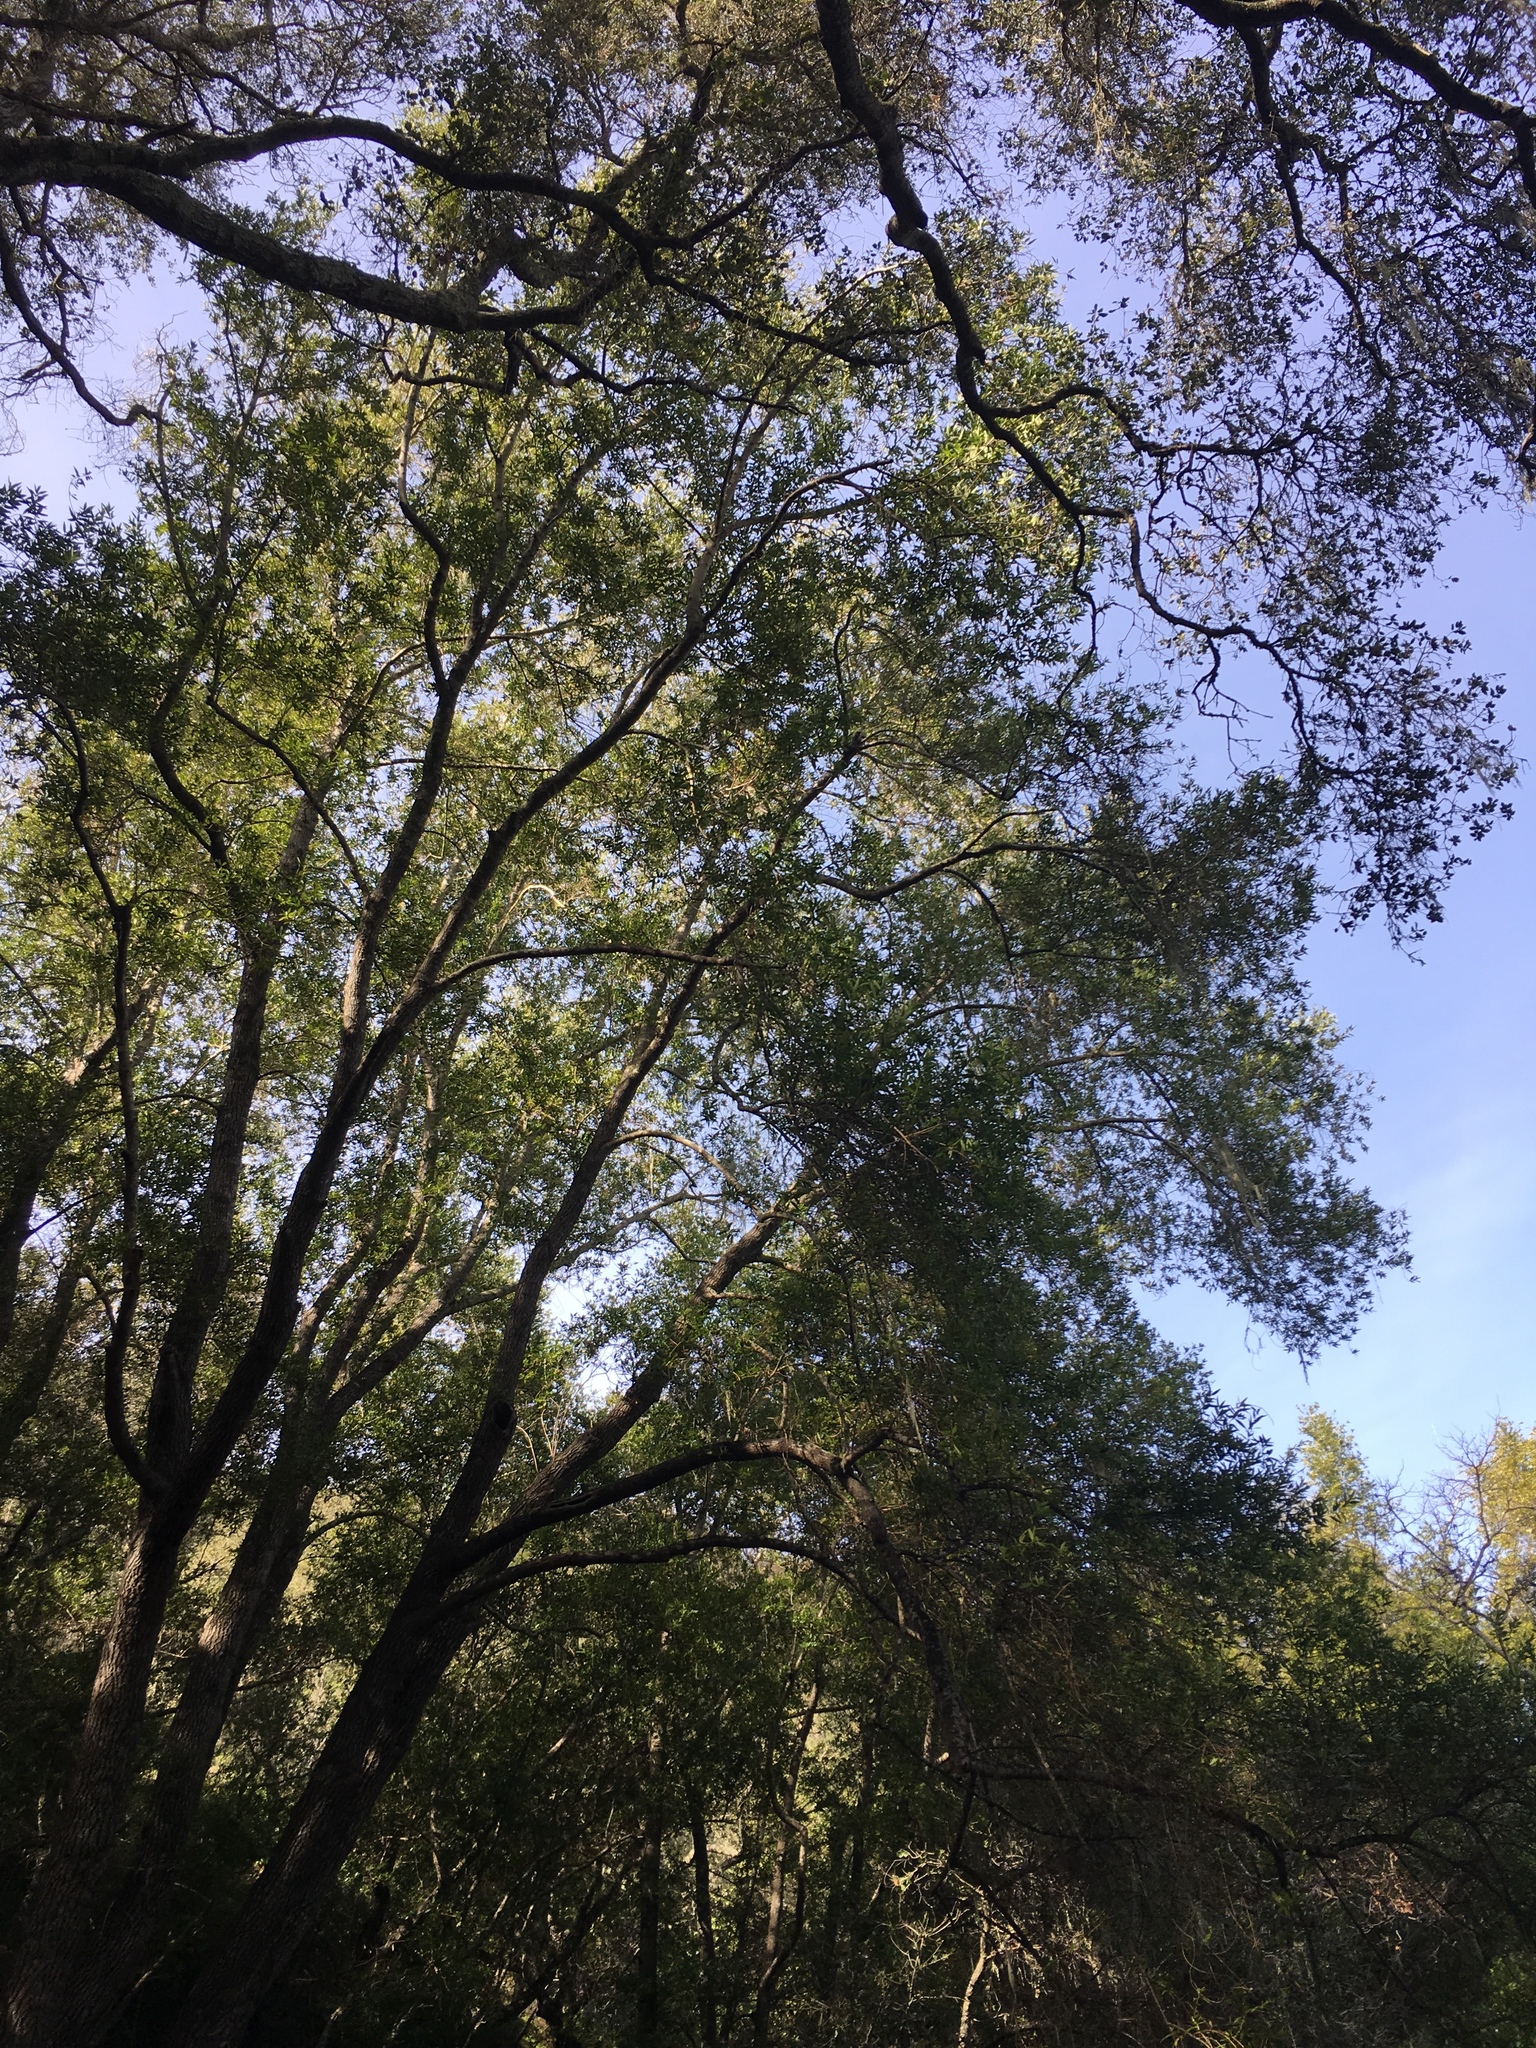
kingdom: Plantae
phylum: Tracheophyta
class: Magnoliopsida
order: Laurales
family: Lauraceae
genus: Umbellularia
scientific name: Umbellularia californica
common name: California bay
